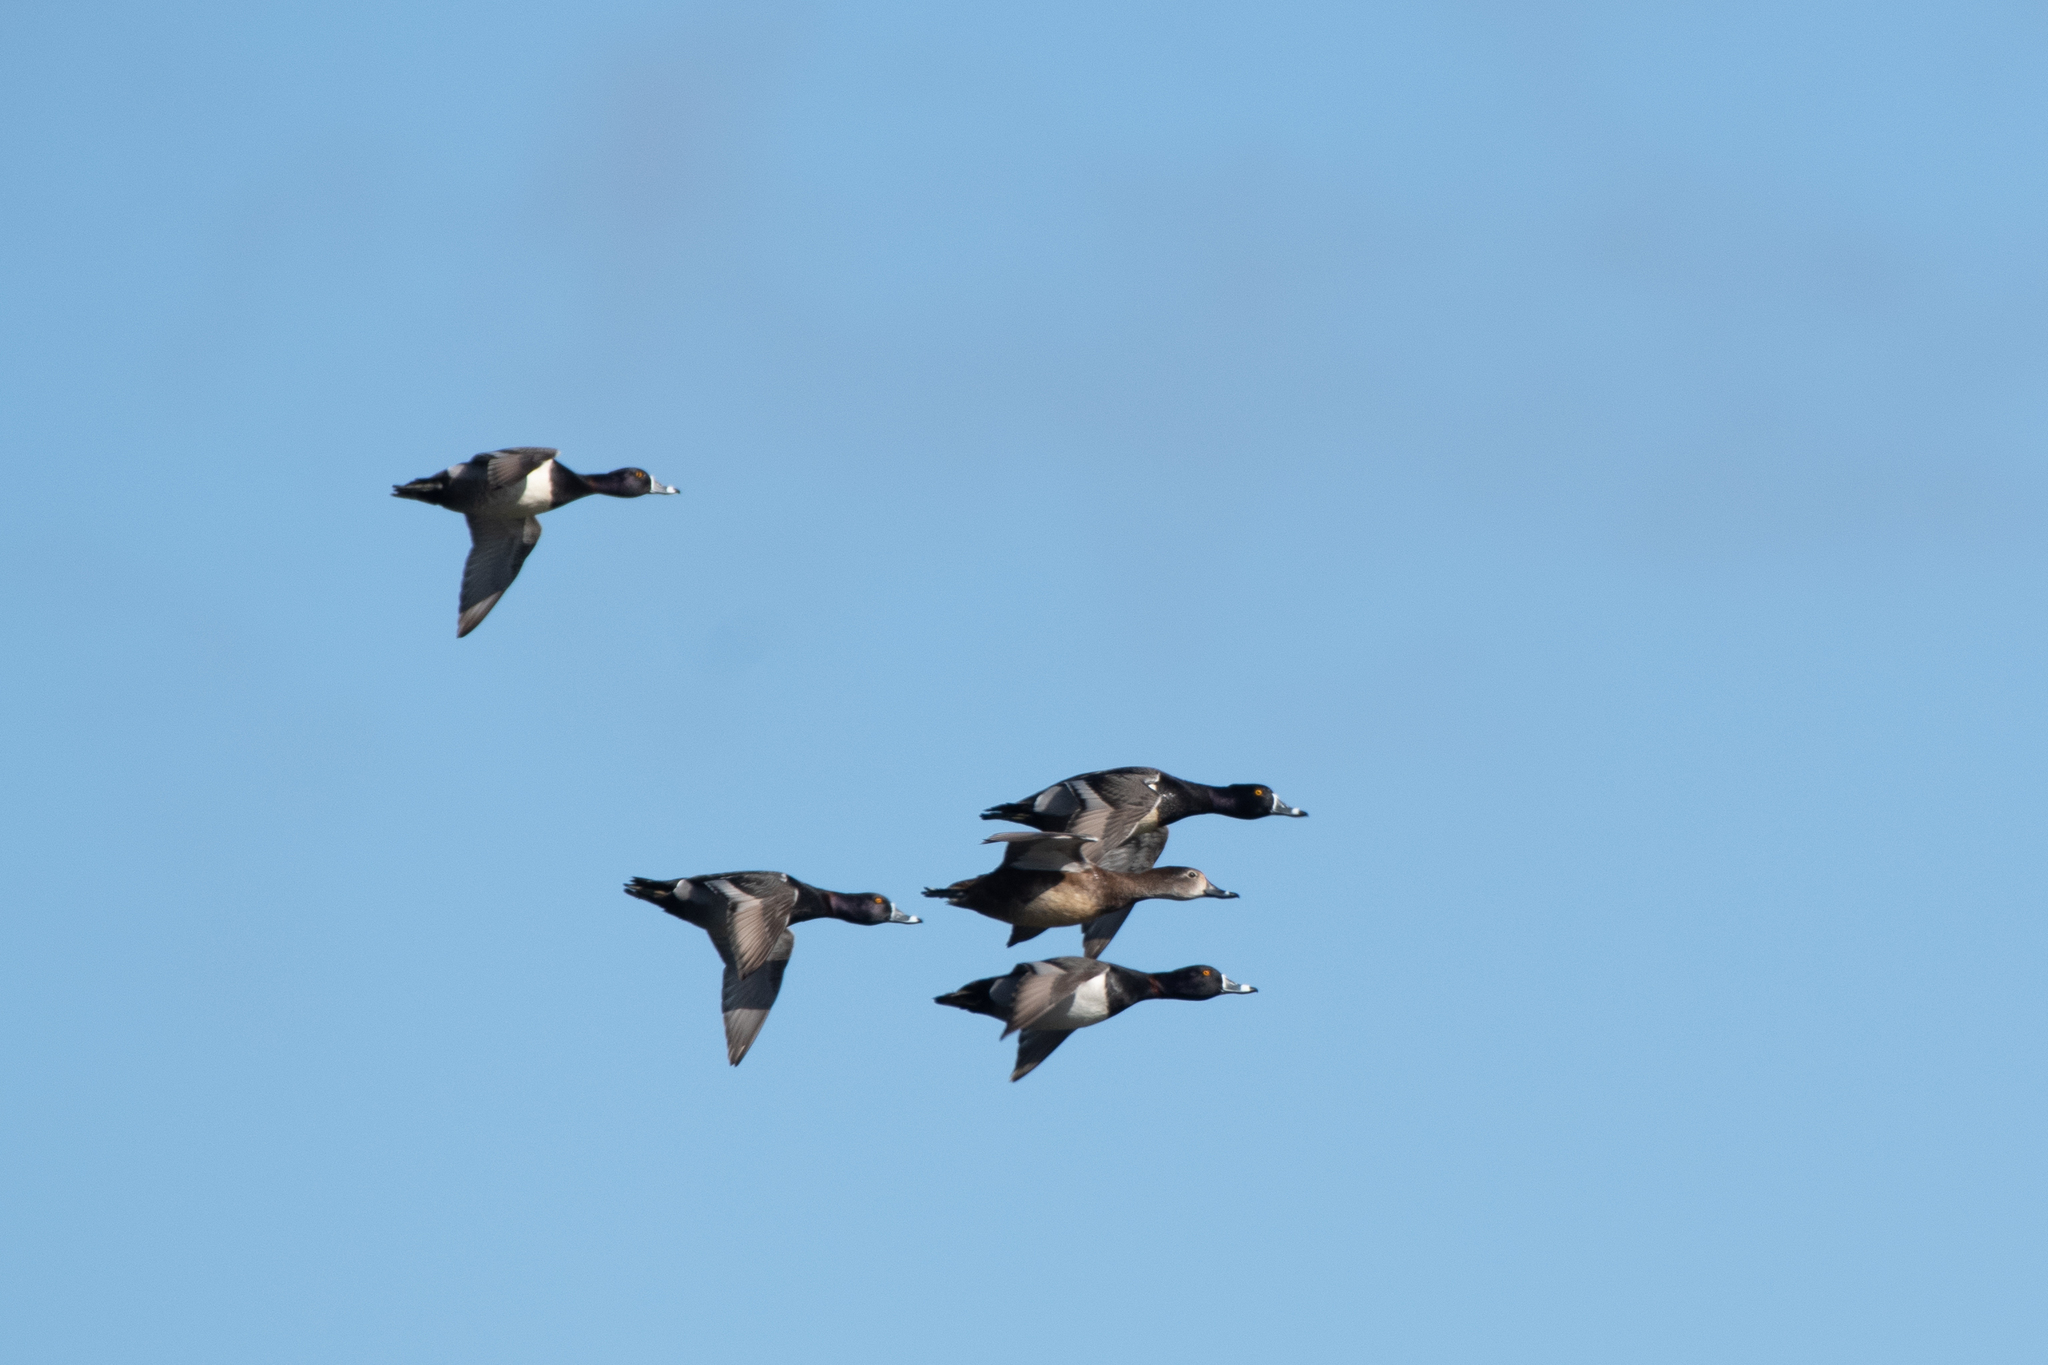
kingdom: Animalia
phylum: Chordata
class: Aves
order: Anseriformes
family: Anatidae
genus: Aythya
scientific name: Aythya collaris
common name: Ring-necked duck
